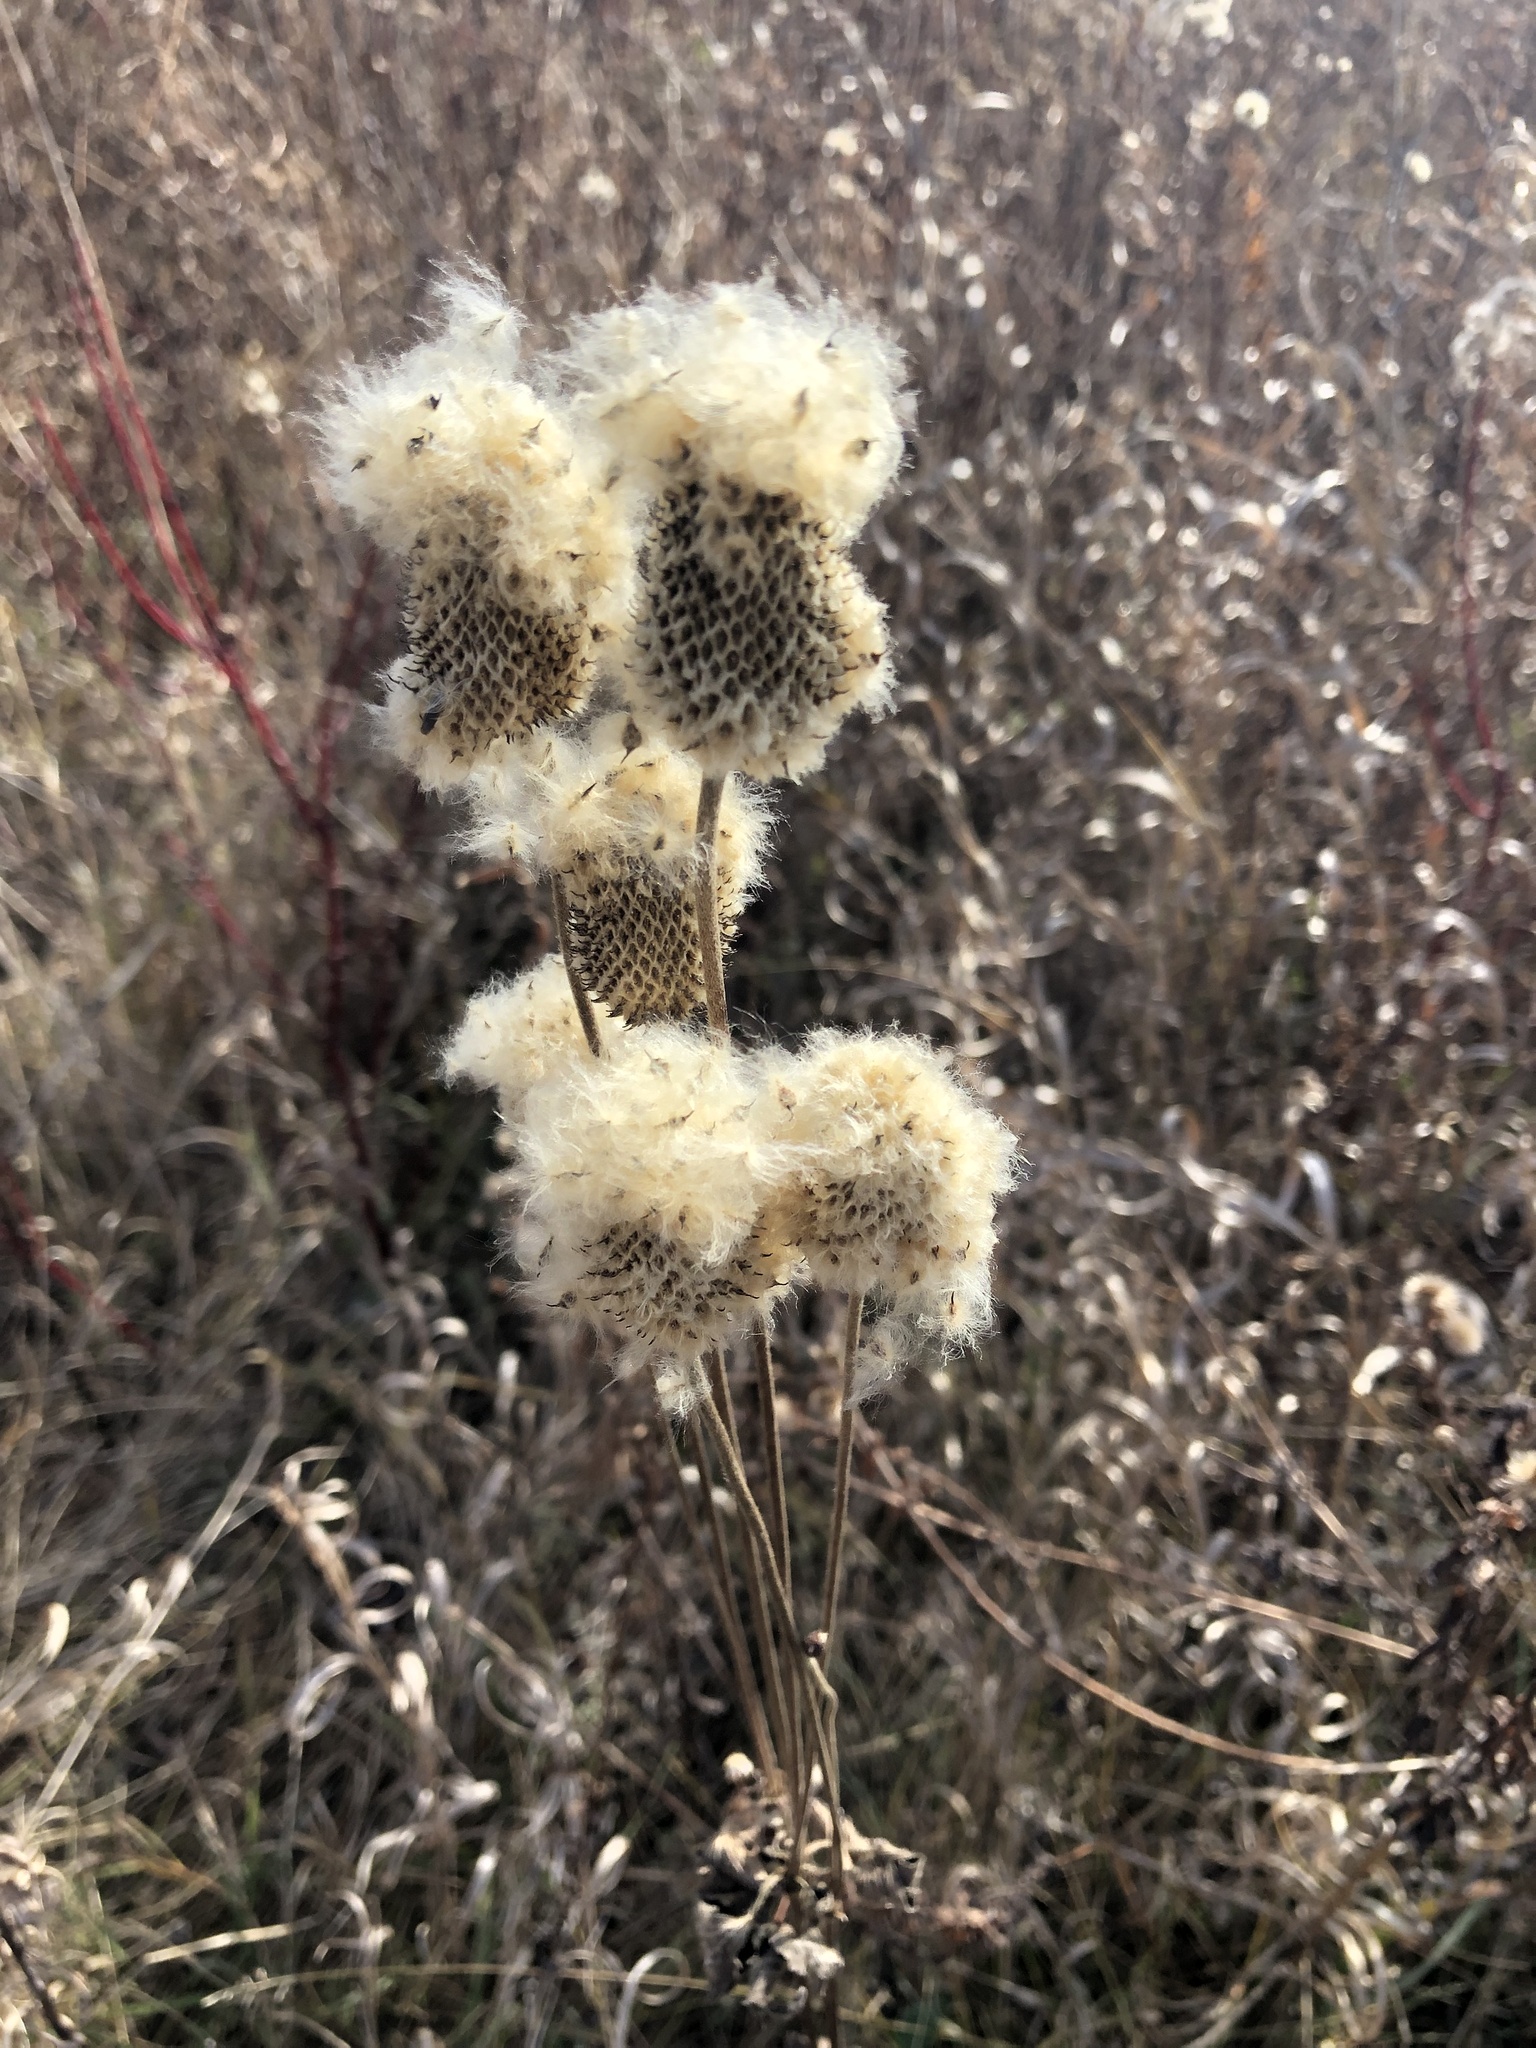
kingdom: Plantae
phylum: Tracheophyta
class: Magnoliopsida
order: Ranunculales
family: Ranunculaceae
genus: Anemone
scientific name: Anemone virginiana
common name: Tall anemone
